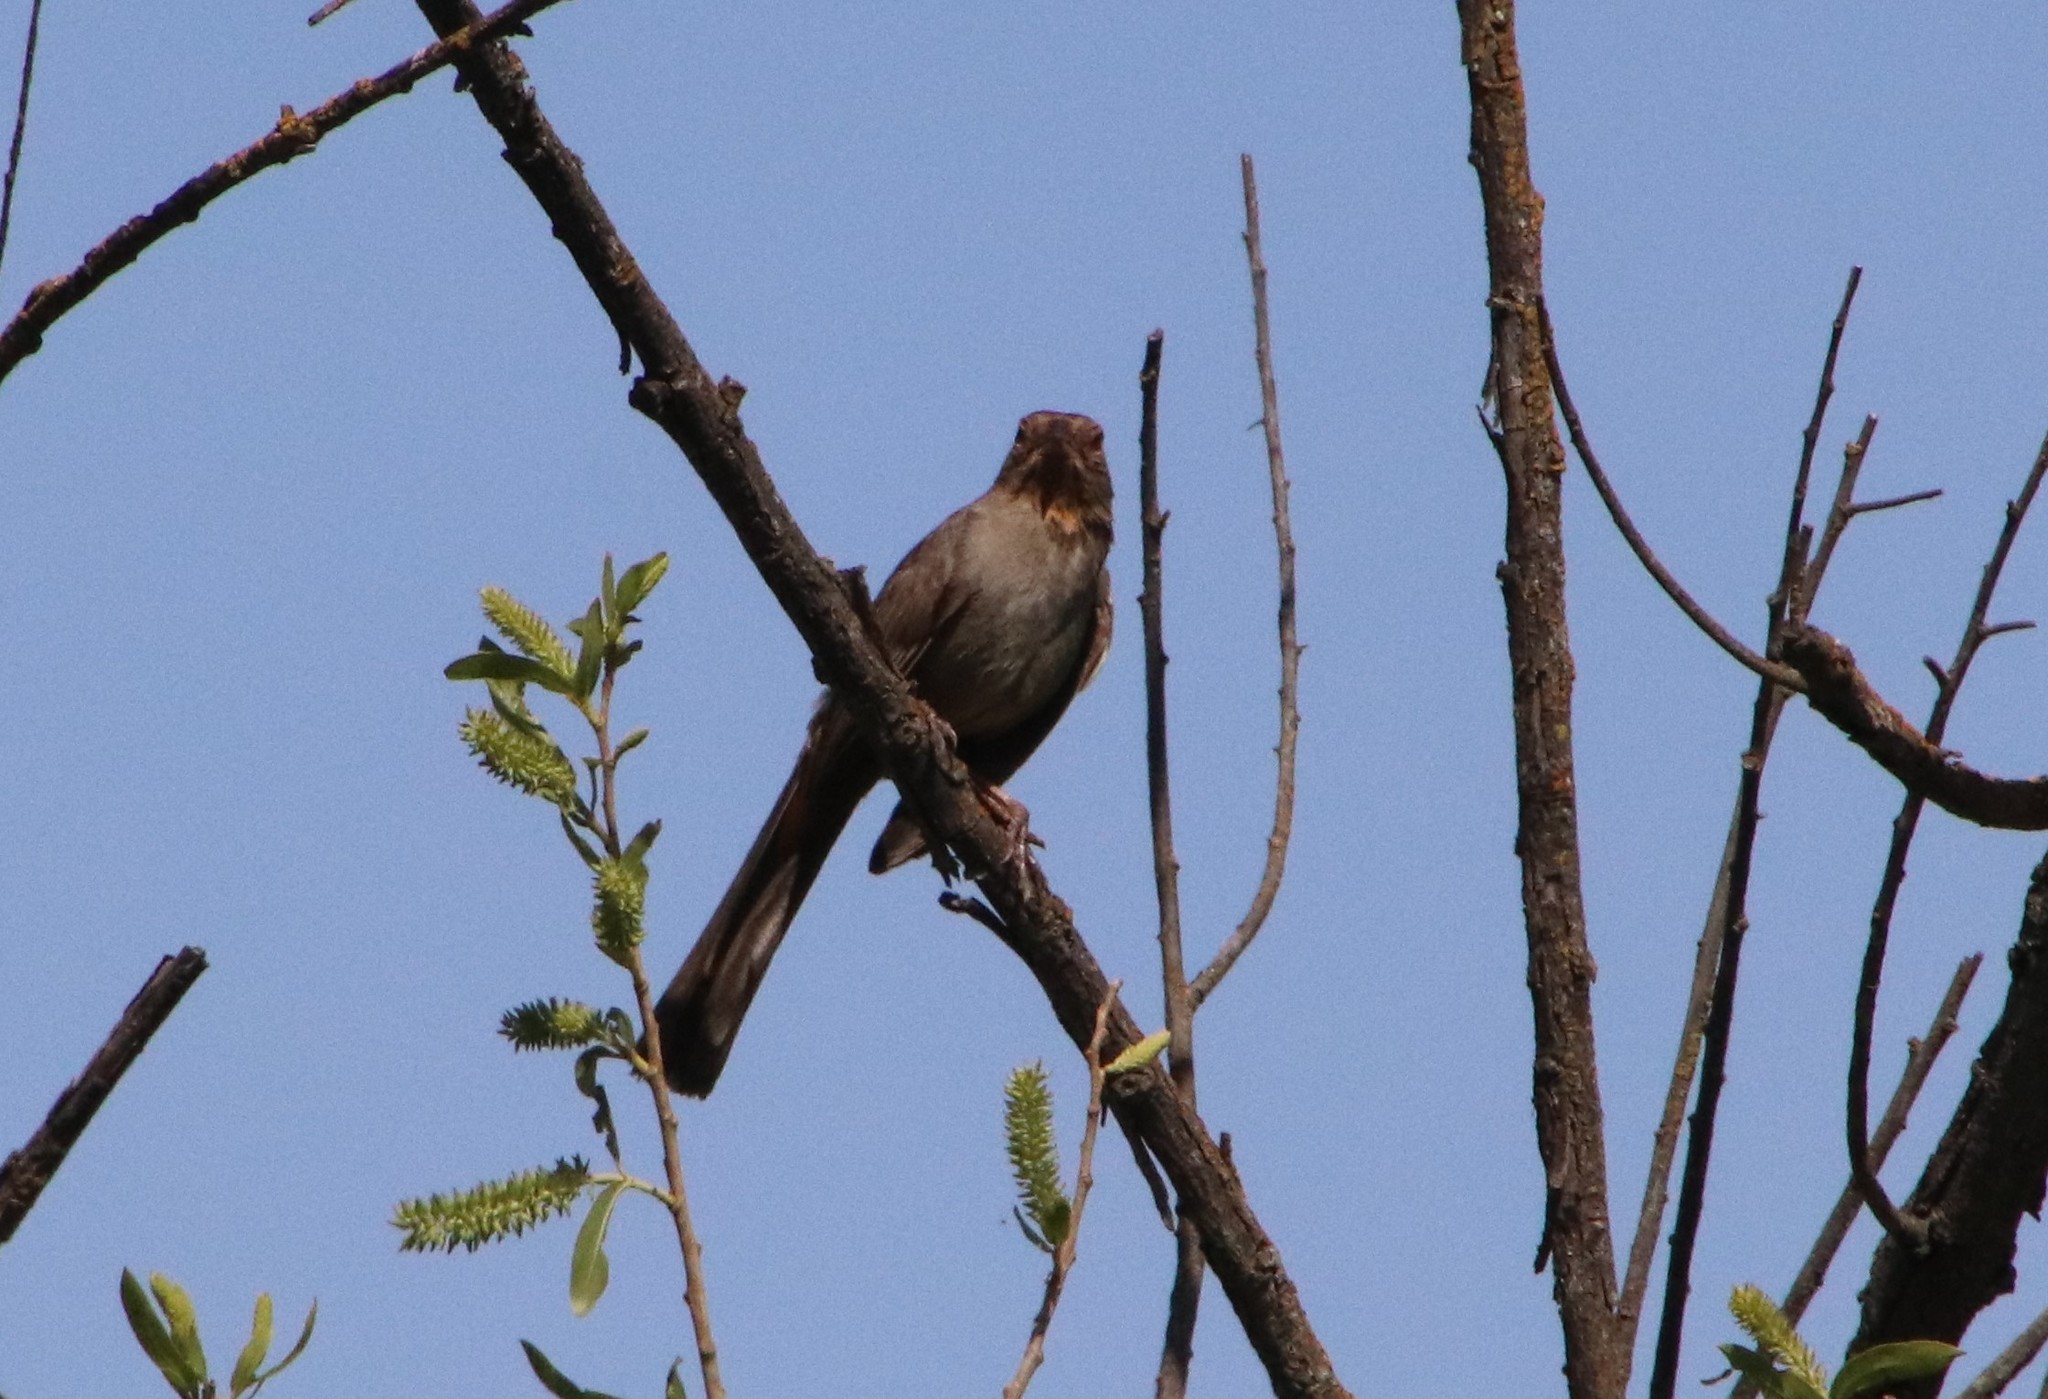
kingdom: Animalia
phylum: Chordata
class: Aves
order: Passeriformes
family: Passerellidae
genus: Melozone
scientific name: Melozone crissalis
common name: California towhee
